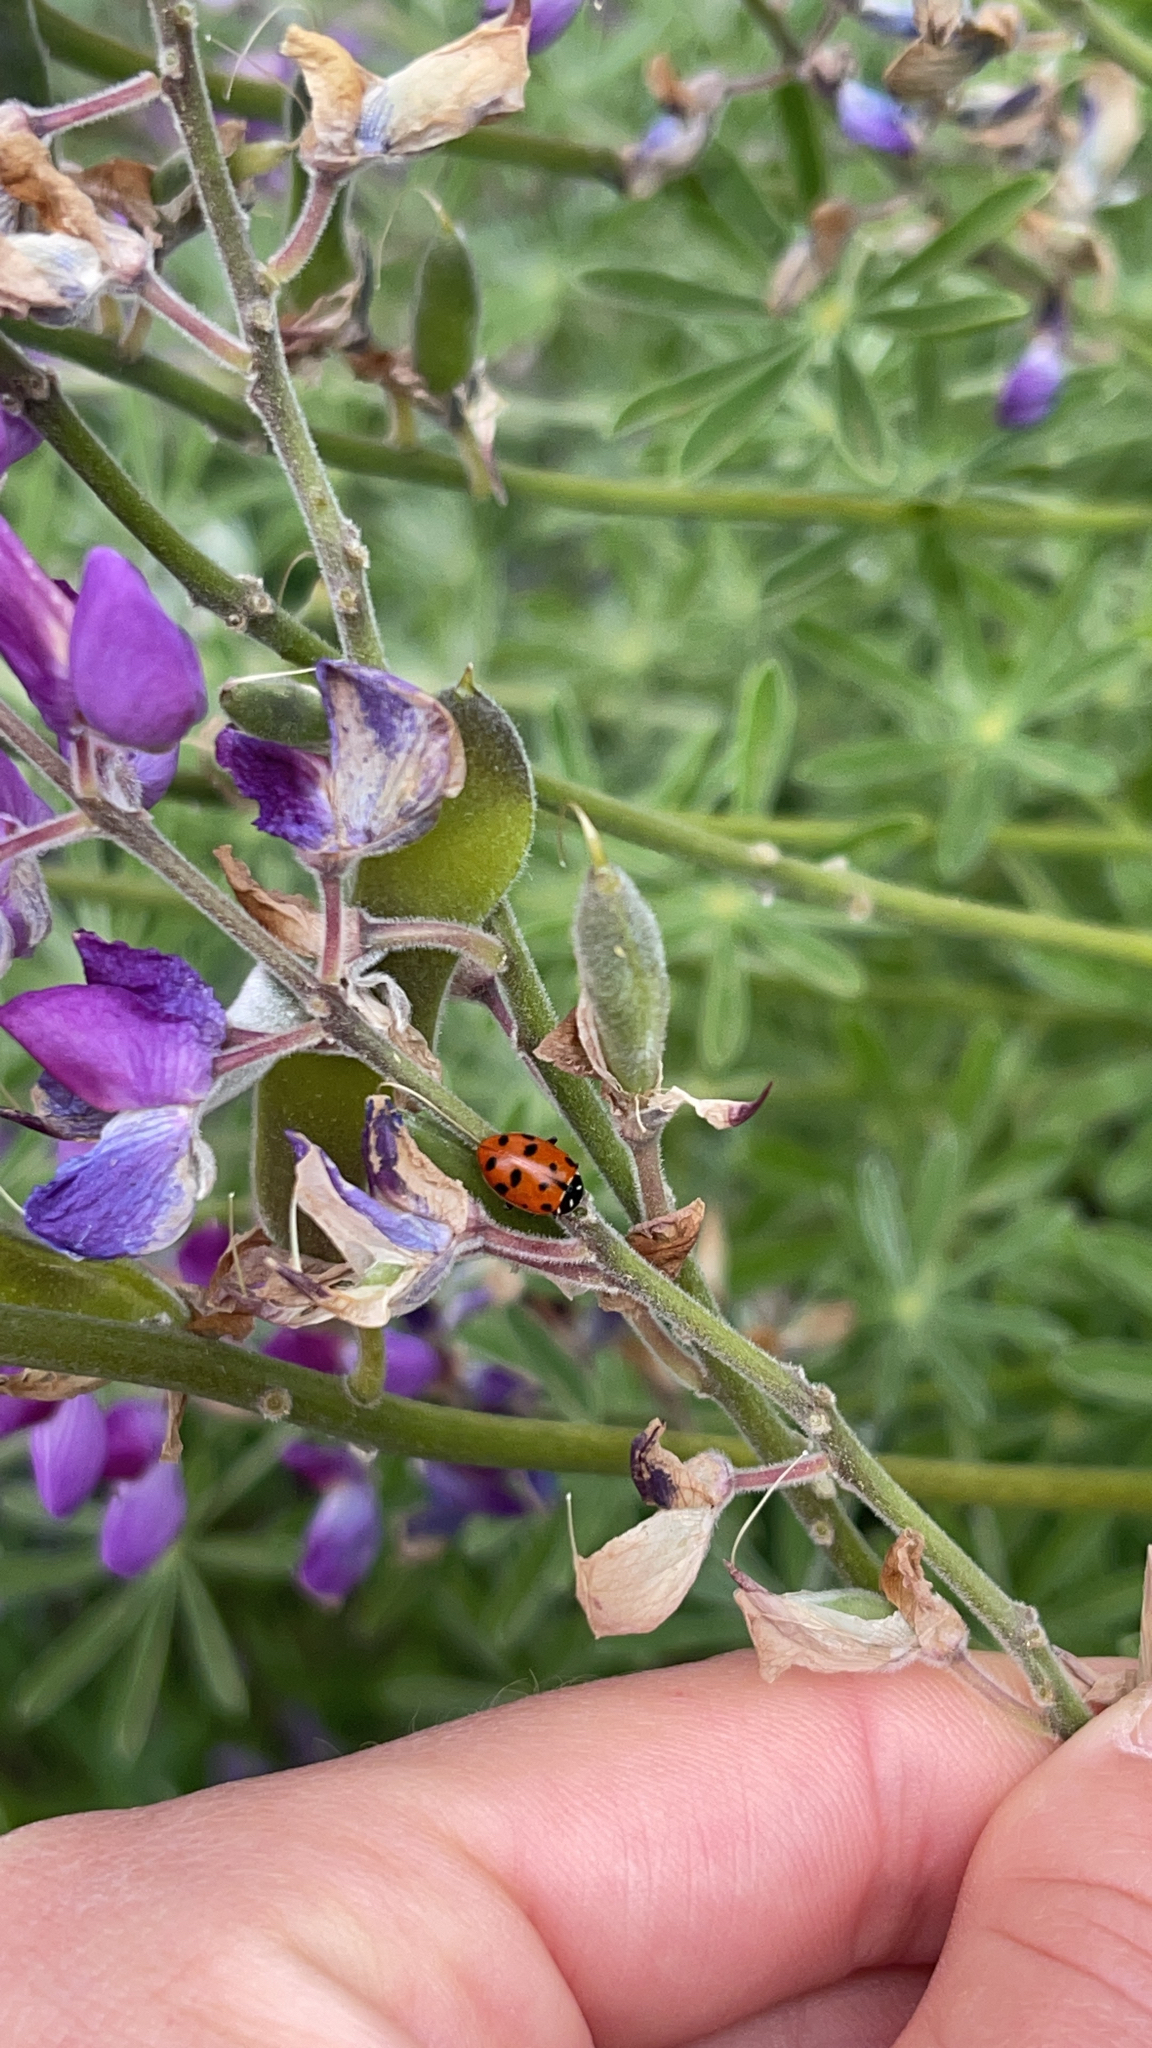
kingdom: Animalia
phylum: Arthropoda
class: Insecta
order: Coleoptera
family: Coccinellidae
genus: Hippodamia
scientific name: Hippodamia convergens
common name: Convergent lady beetle
